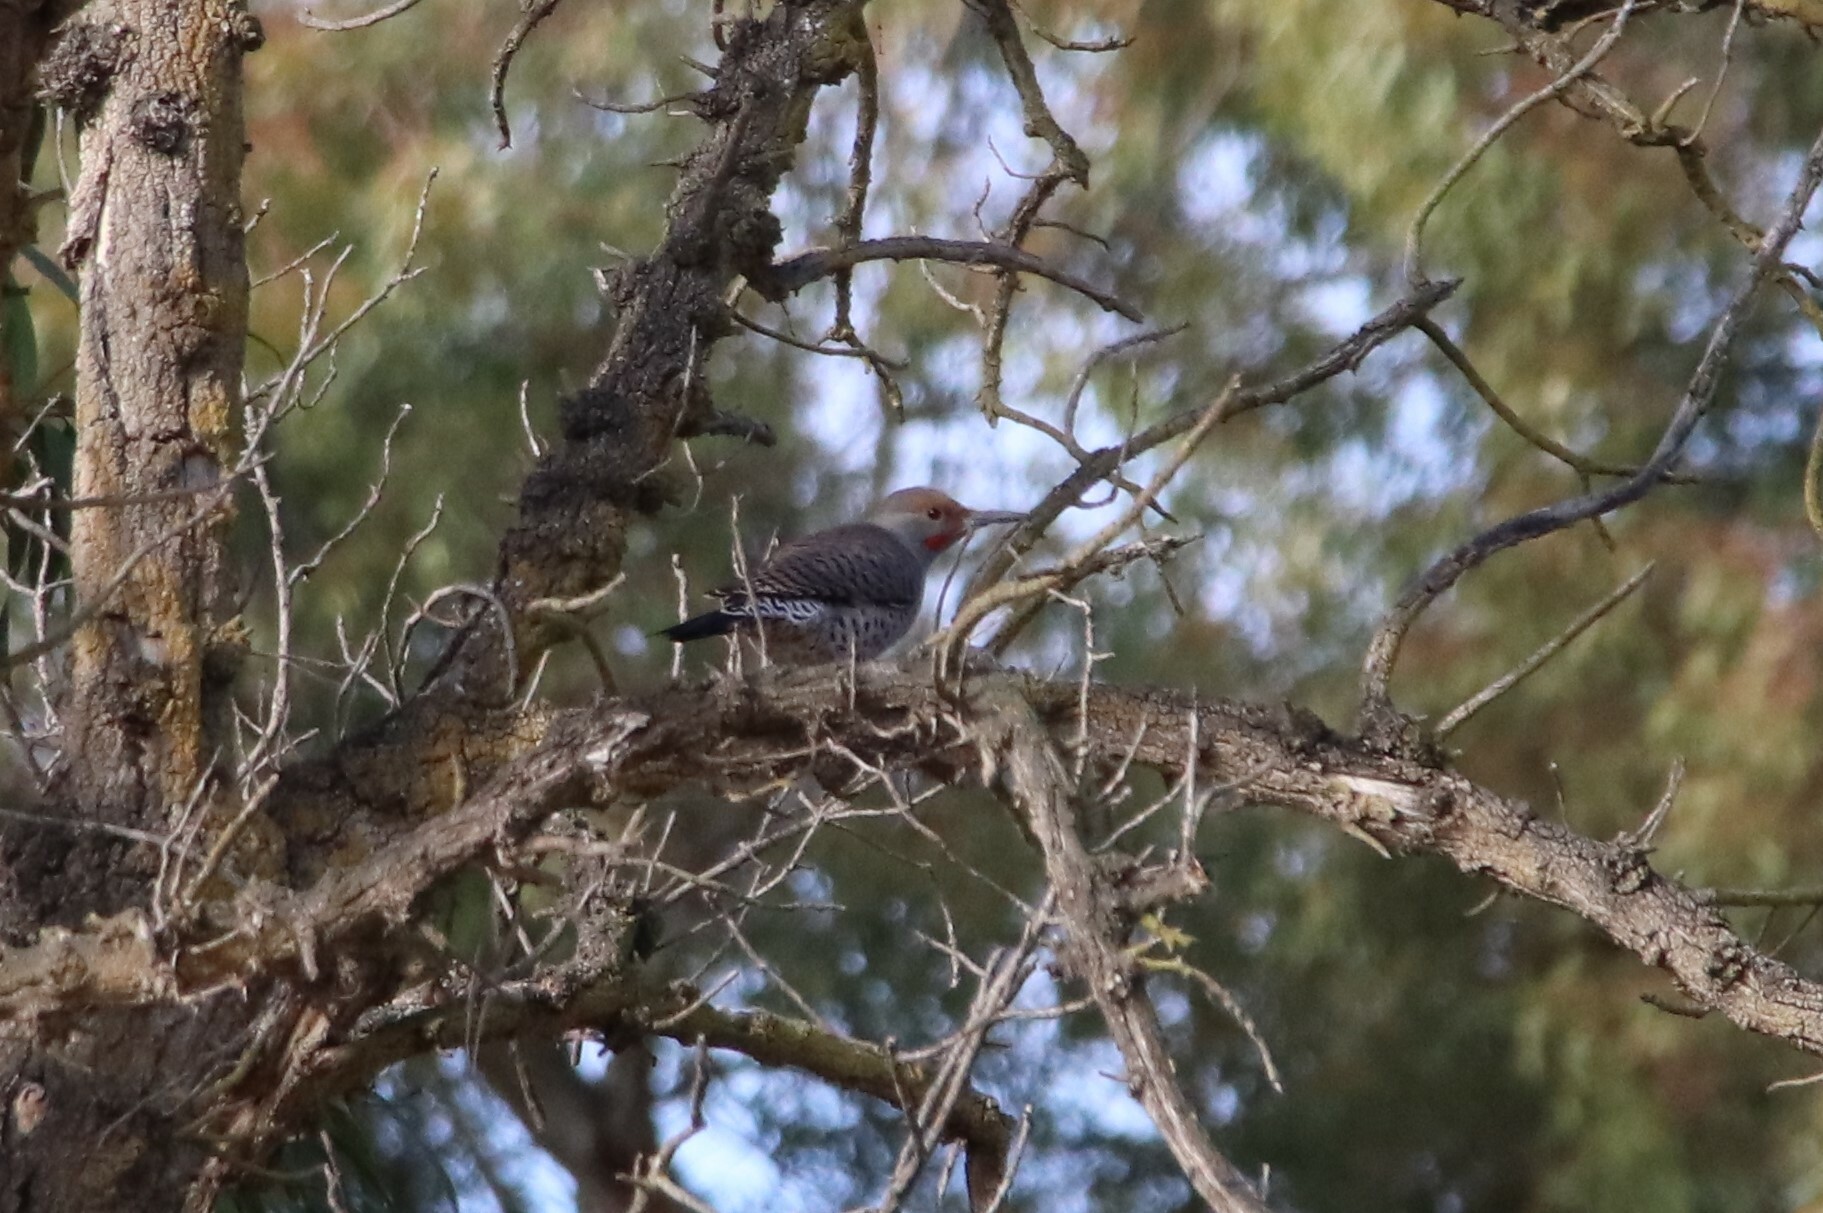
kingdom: Animalia
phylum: Chordata
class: Aves
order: Piciformes
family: Picidae
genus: Colaptes
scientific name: Colaptes auratus
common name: Northern flicker
